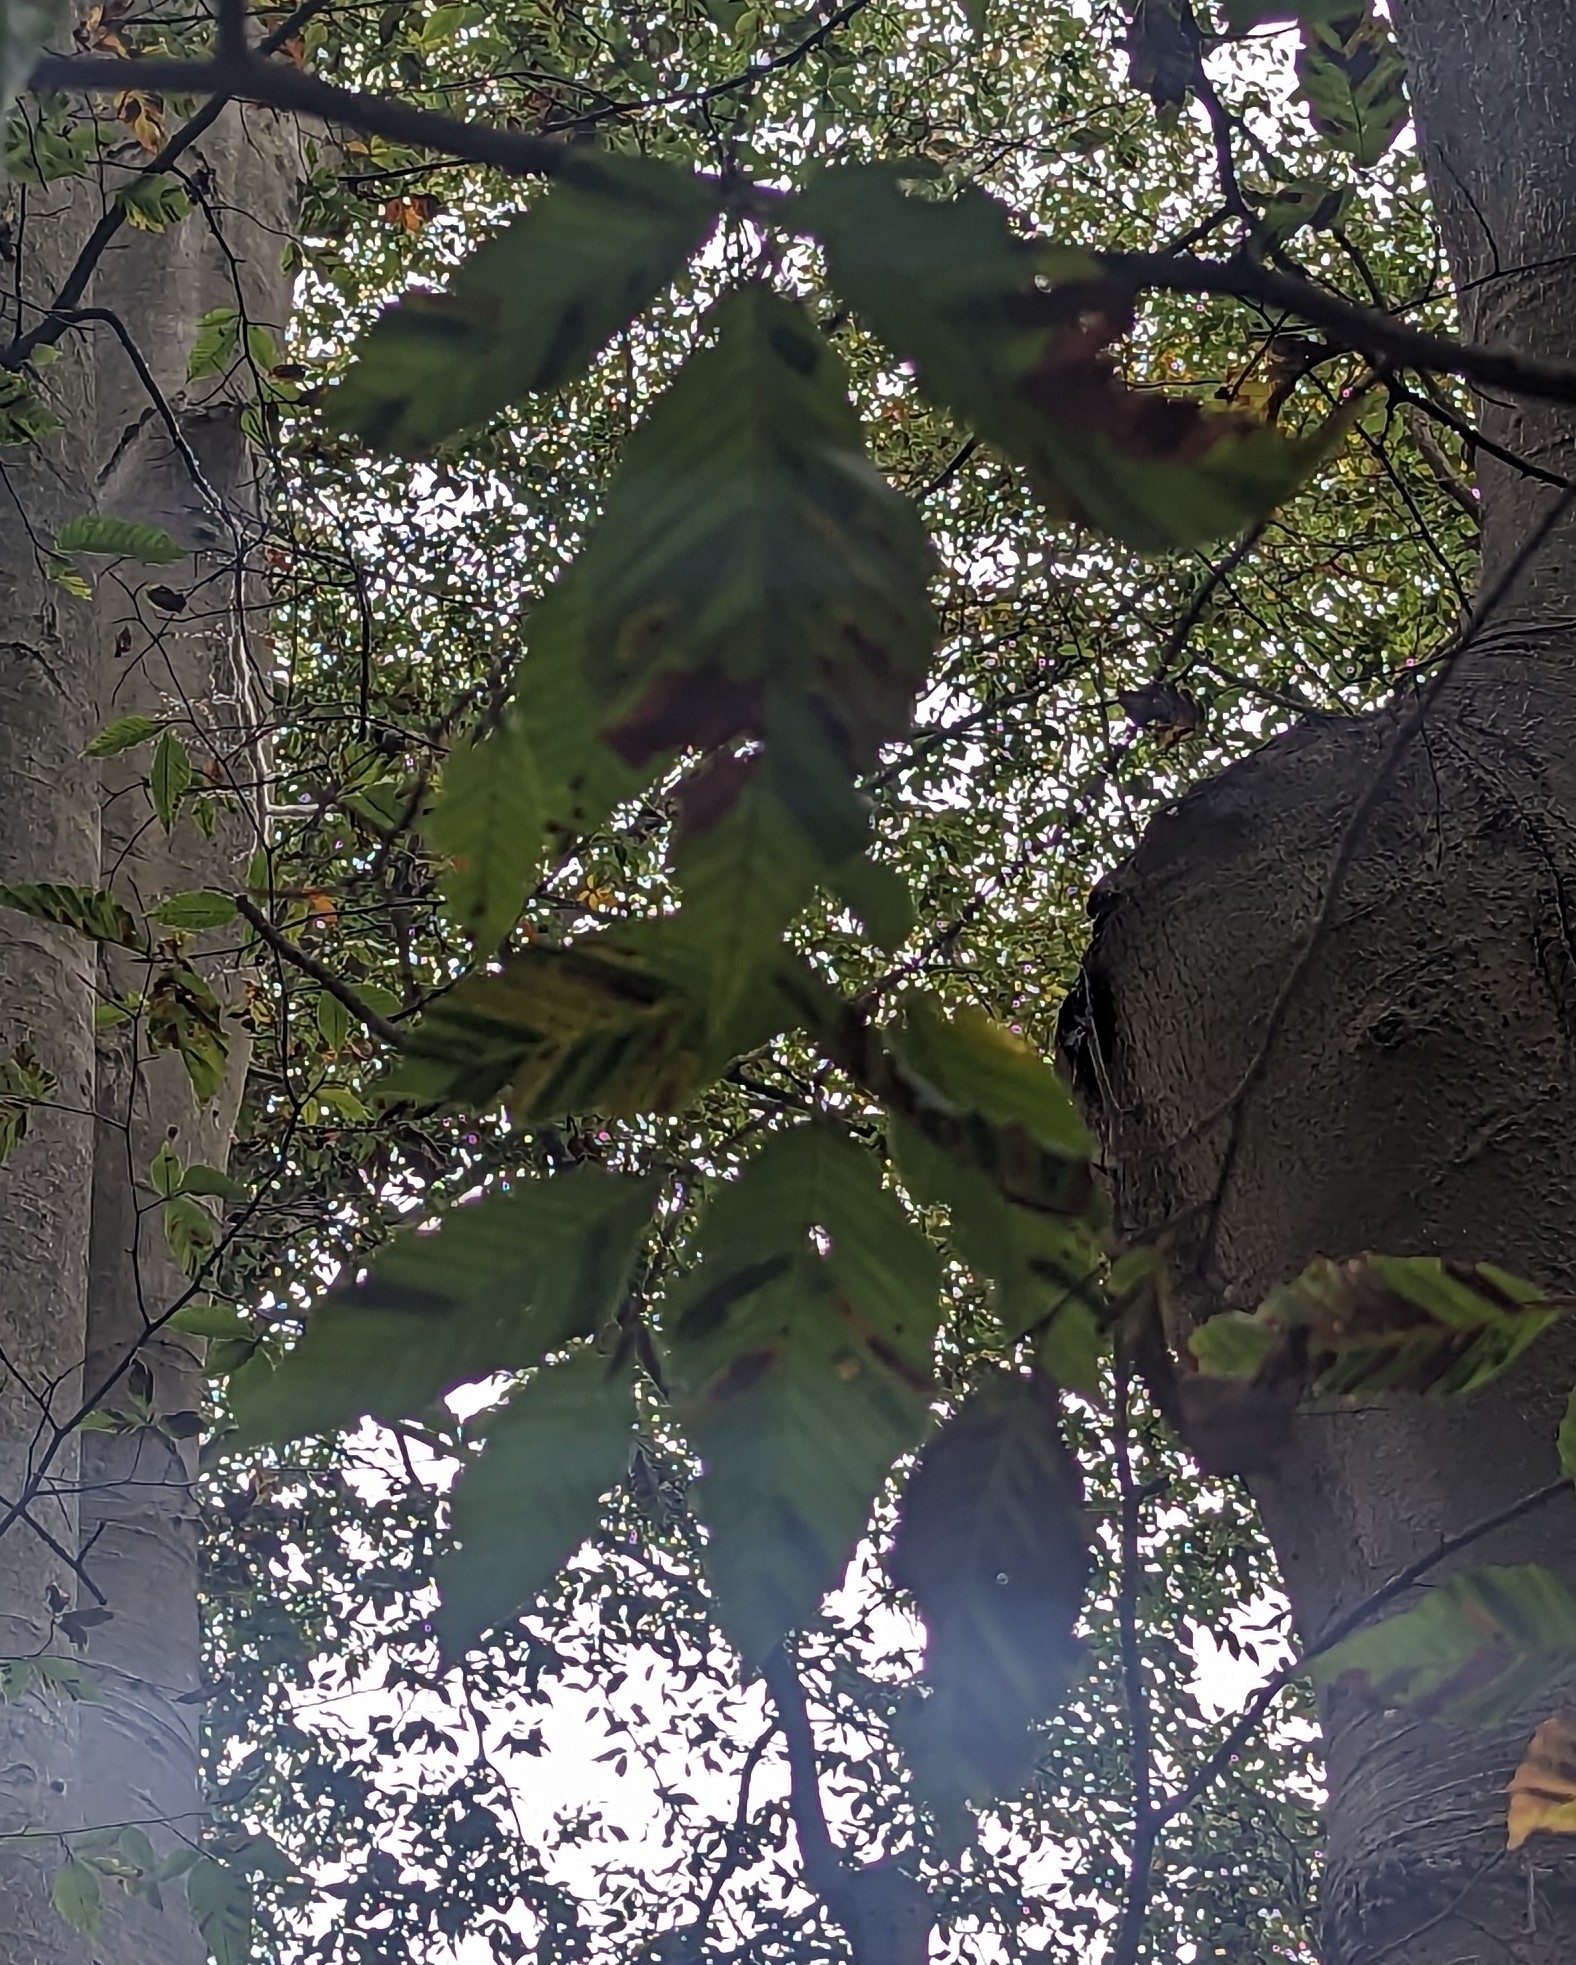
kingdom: Animalia
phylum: Nematoda
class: Chromadorea
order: Rhabditida
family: Anguinidae
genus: Litylenchus
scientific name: Litylenchus crenatae
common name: Beech leaf disease
